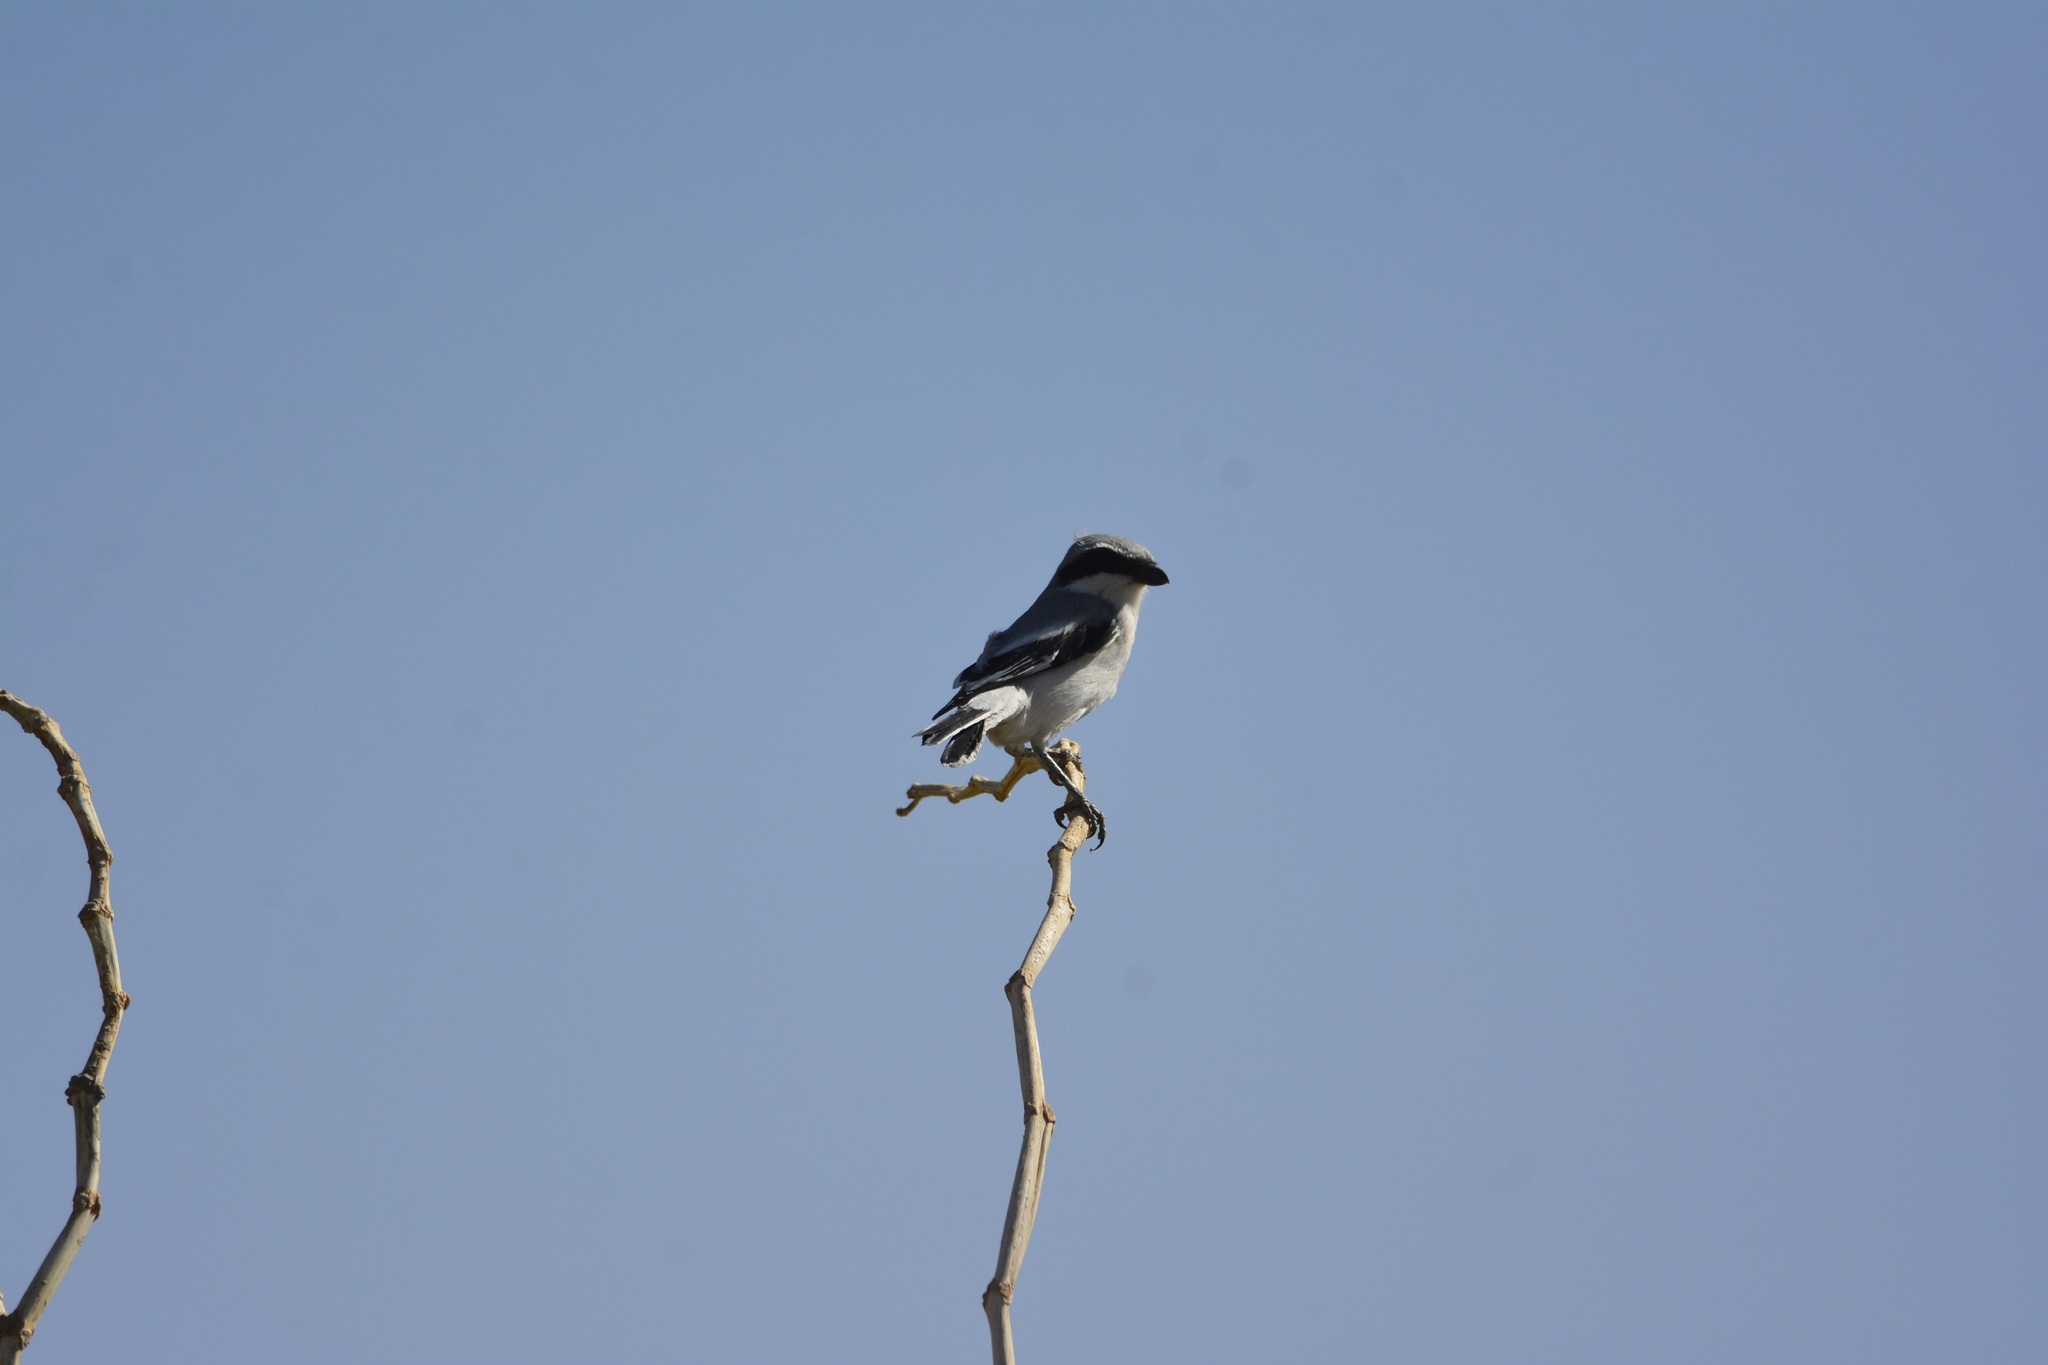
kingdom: Animalia
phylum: Chordata
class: Aves
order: Passeriformes
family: Laniidae
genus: Lanius
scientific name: Lanius excubitor
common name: Great grey shrike
